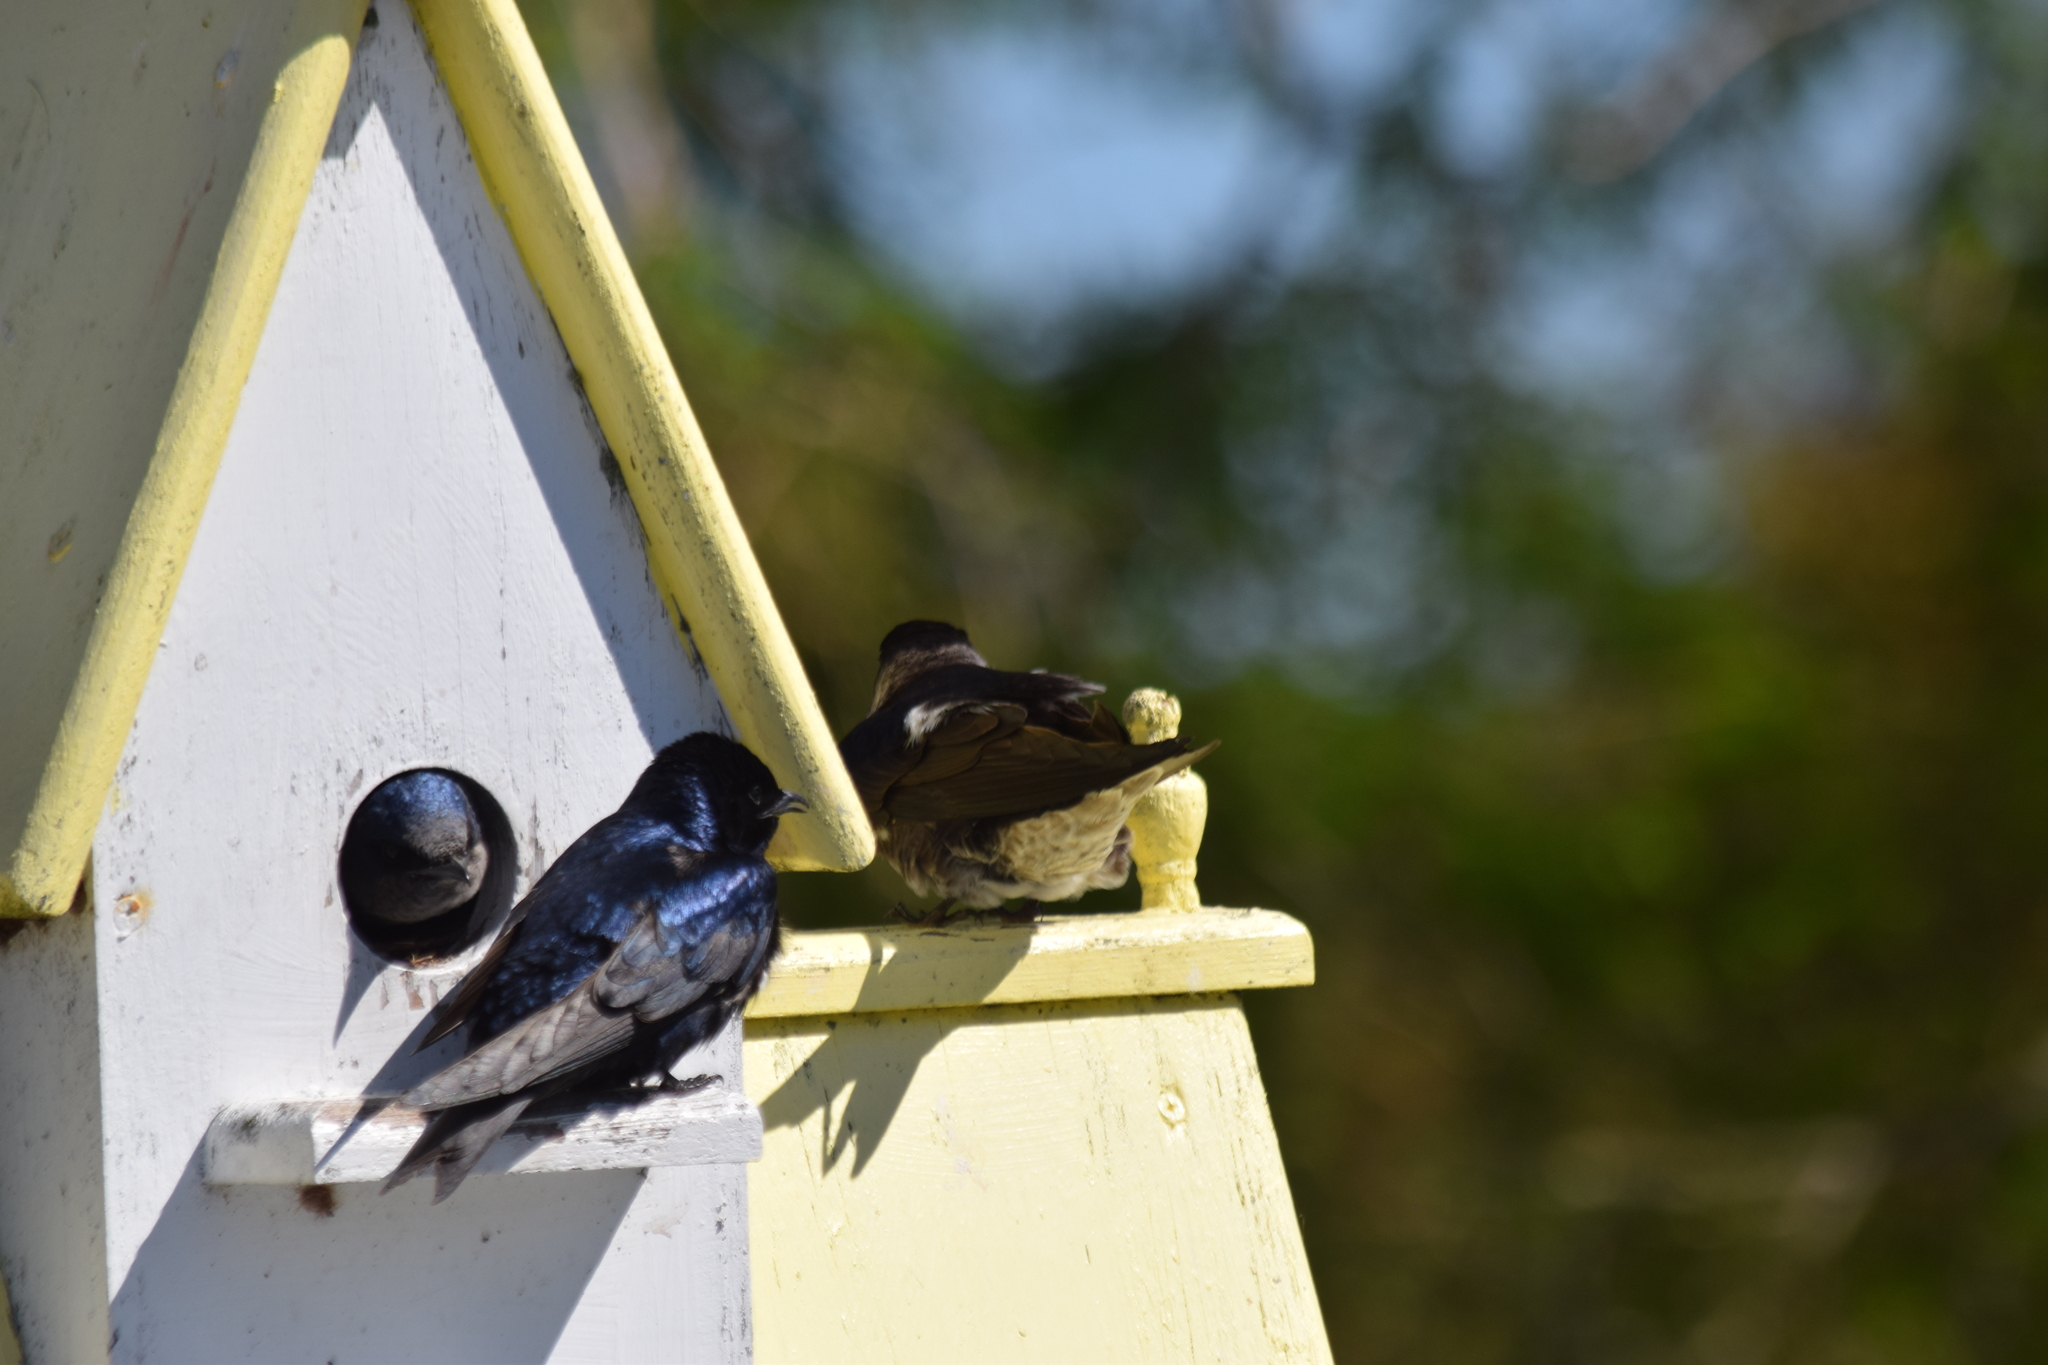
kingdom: Animalia
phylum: Chordata
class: Aves
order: Passeriformes
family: Hirundinidae
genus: Progne
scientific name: Progne subis
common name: Purple martin
